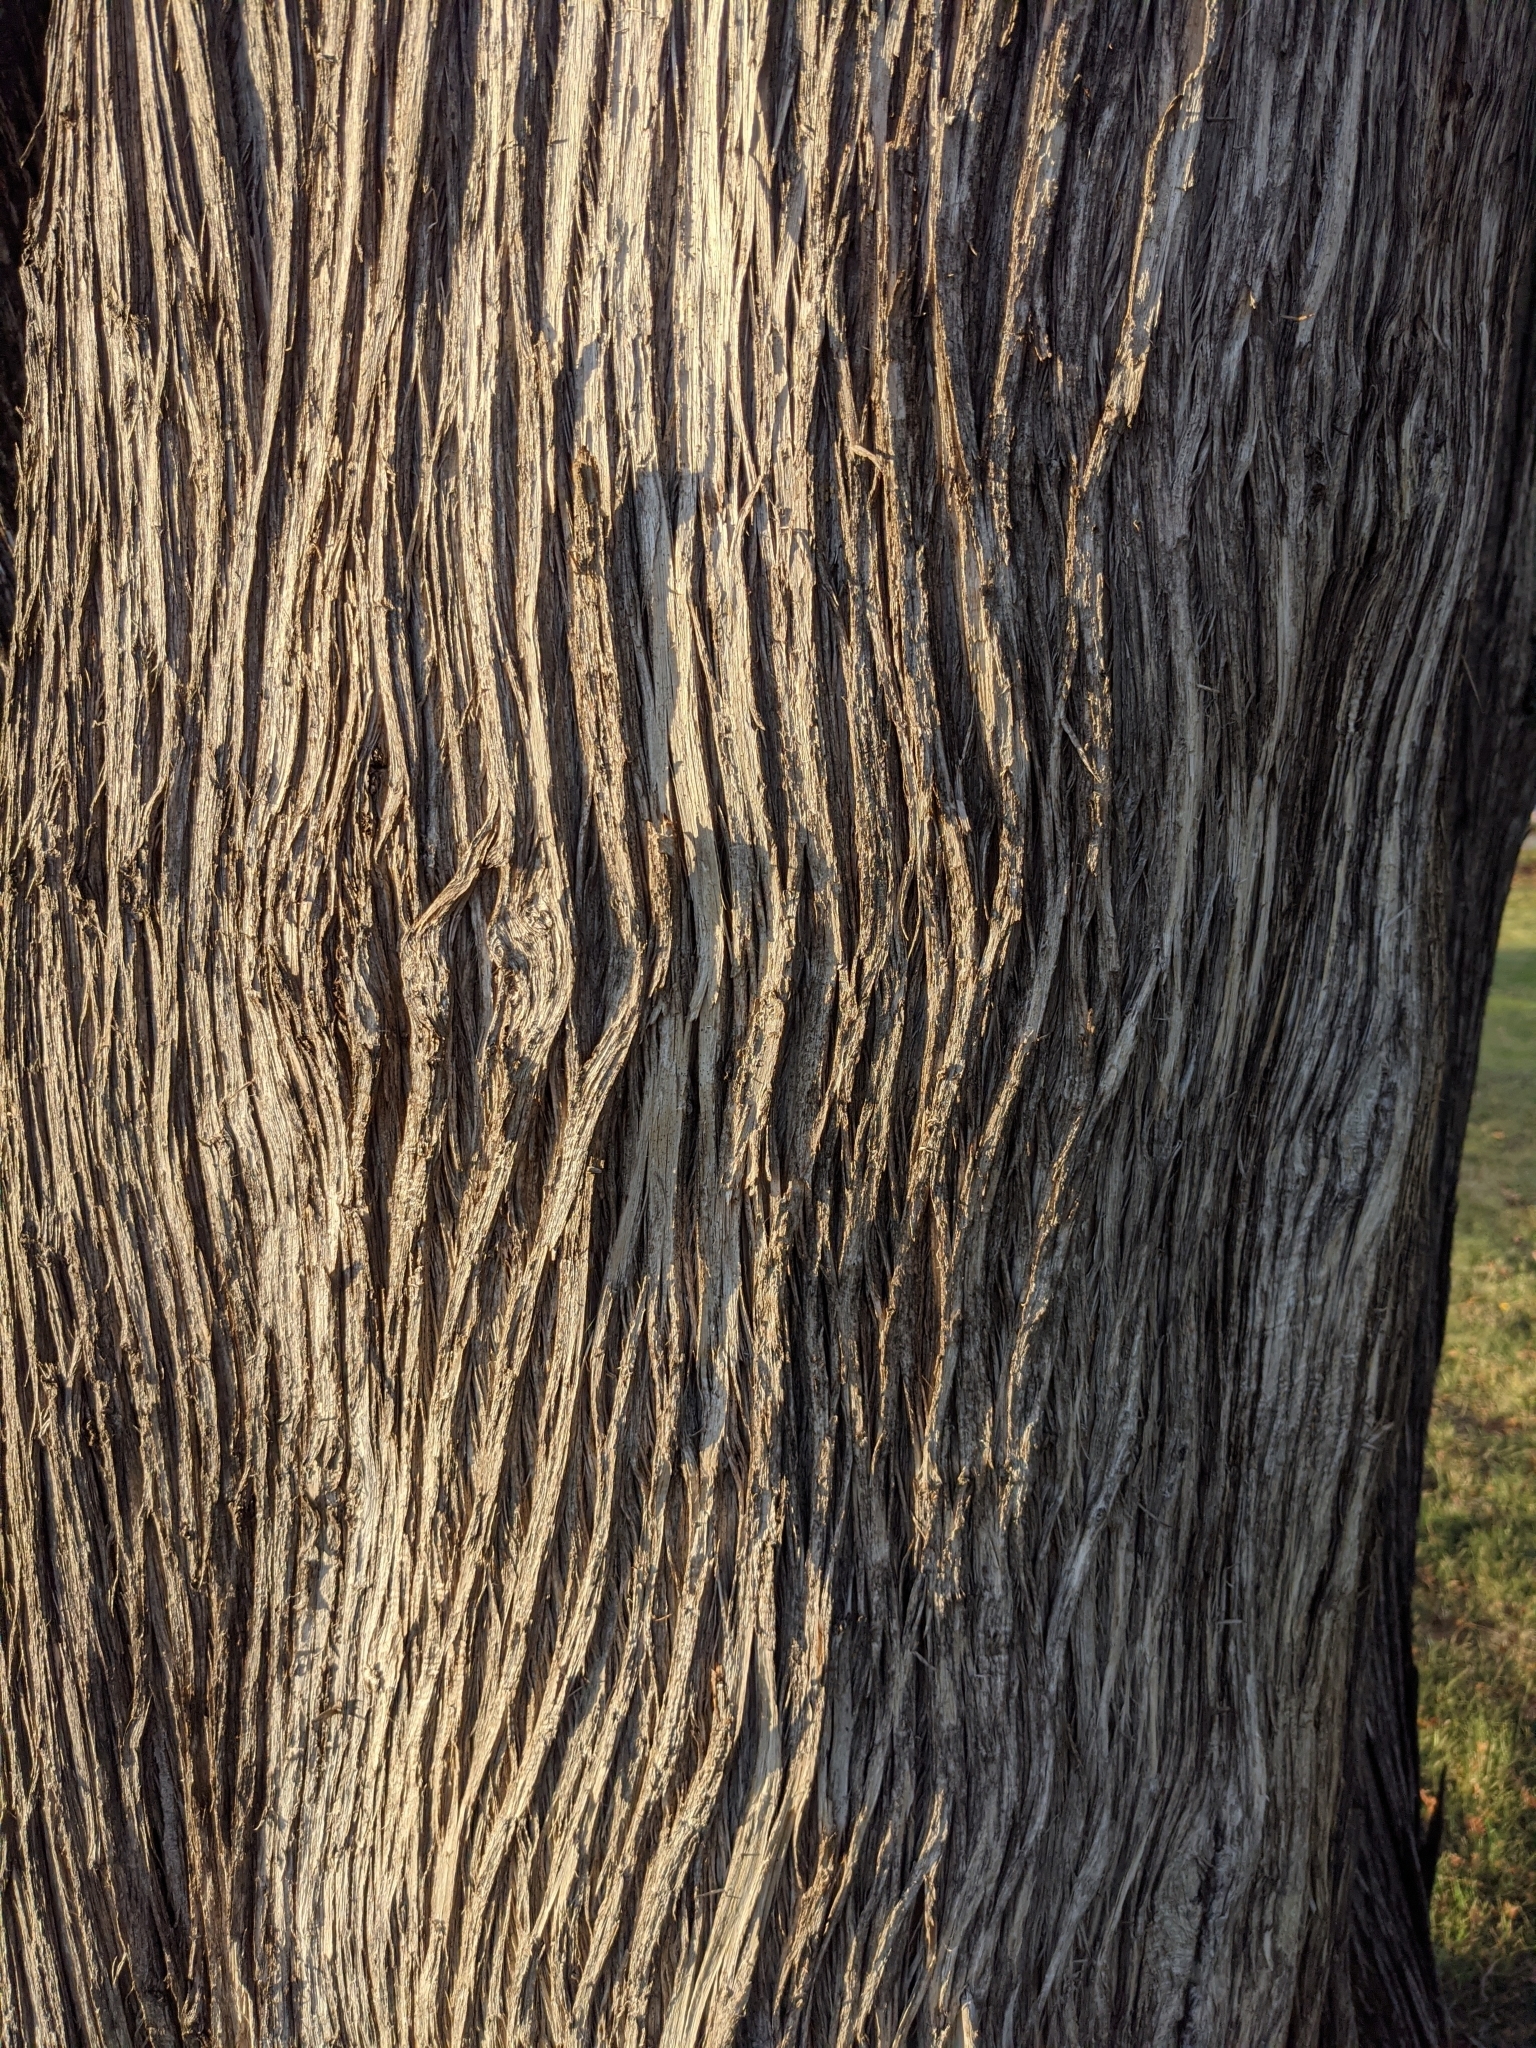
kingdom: Plantae
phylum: Tracheophyta
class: Pinopsida
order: Pinales
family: Cupressaceae
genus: Thuja
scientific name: Thuja occidentalis
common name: Northern white-cedar
